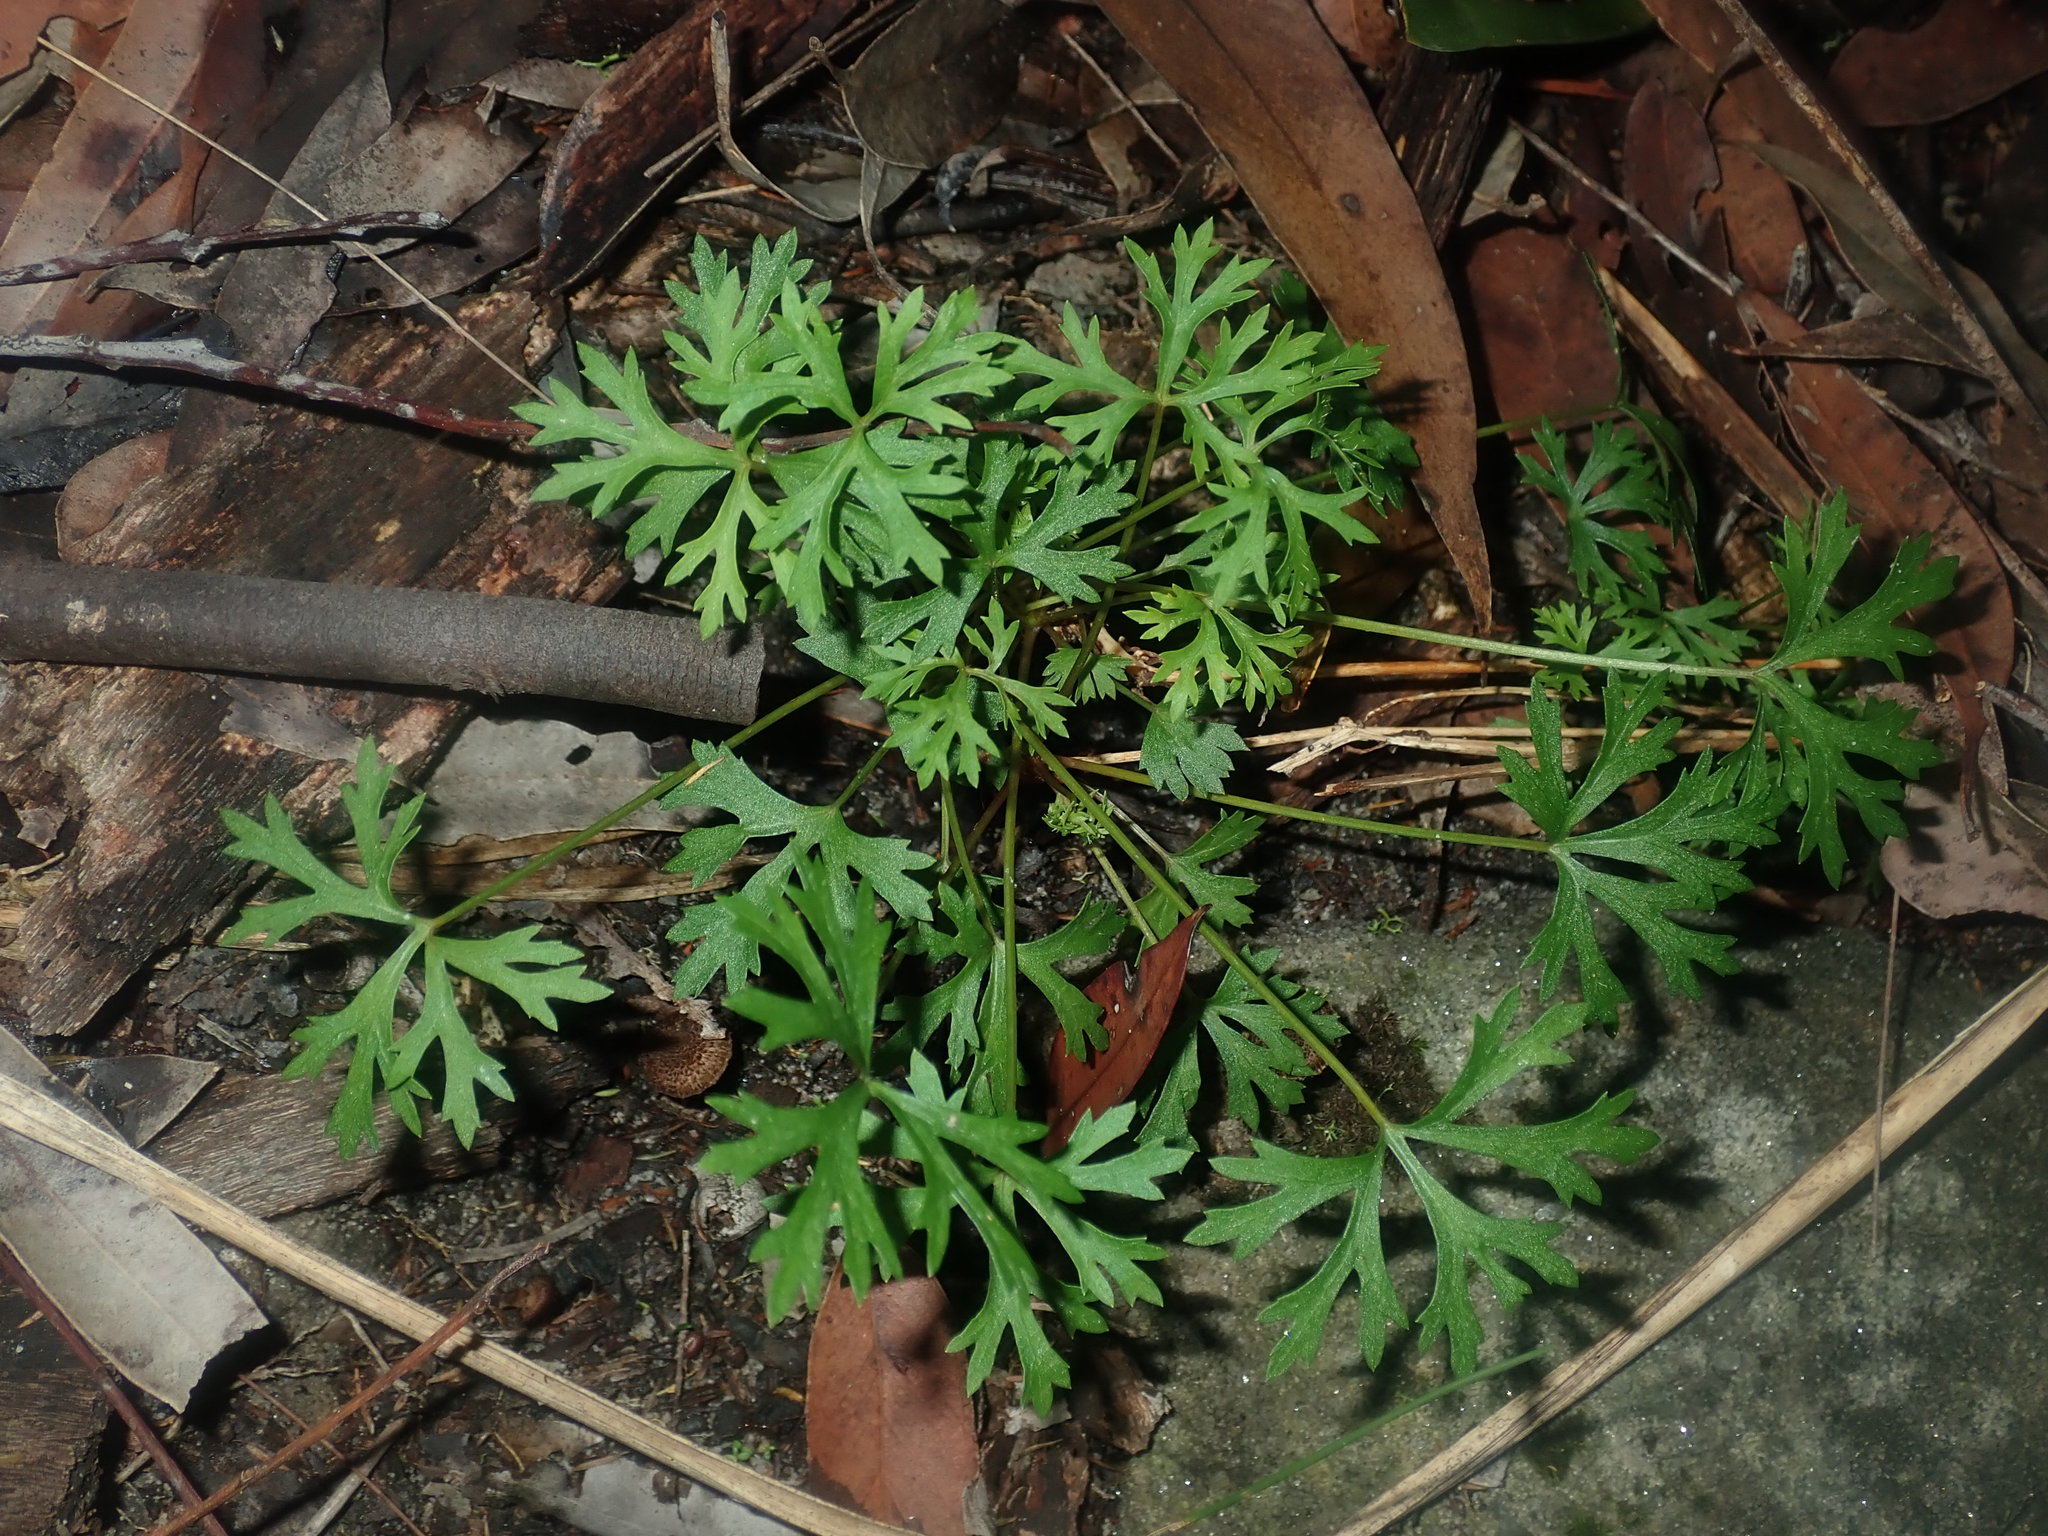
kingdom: Plantae
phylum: Tracheophyta
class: Magnoliopsida
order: Apiales
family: Araliaceae
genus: Trachymene
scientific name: Trachymene incisa
